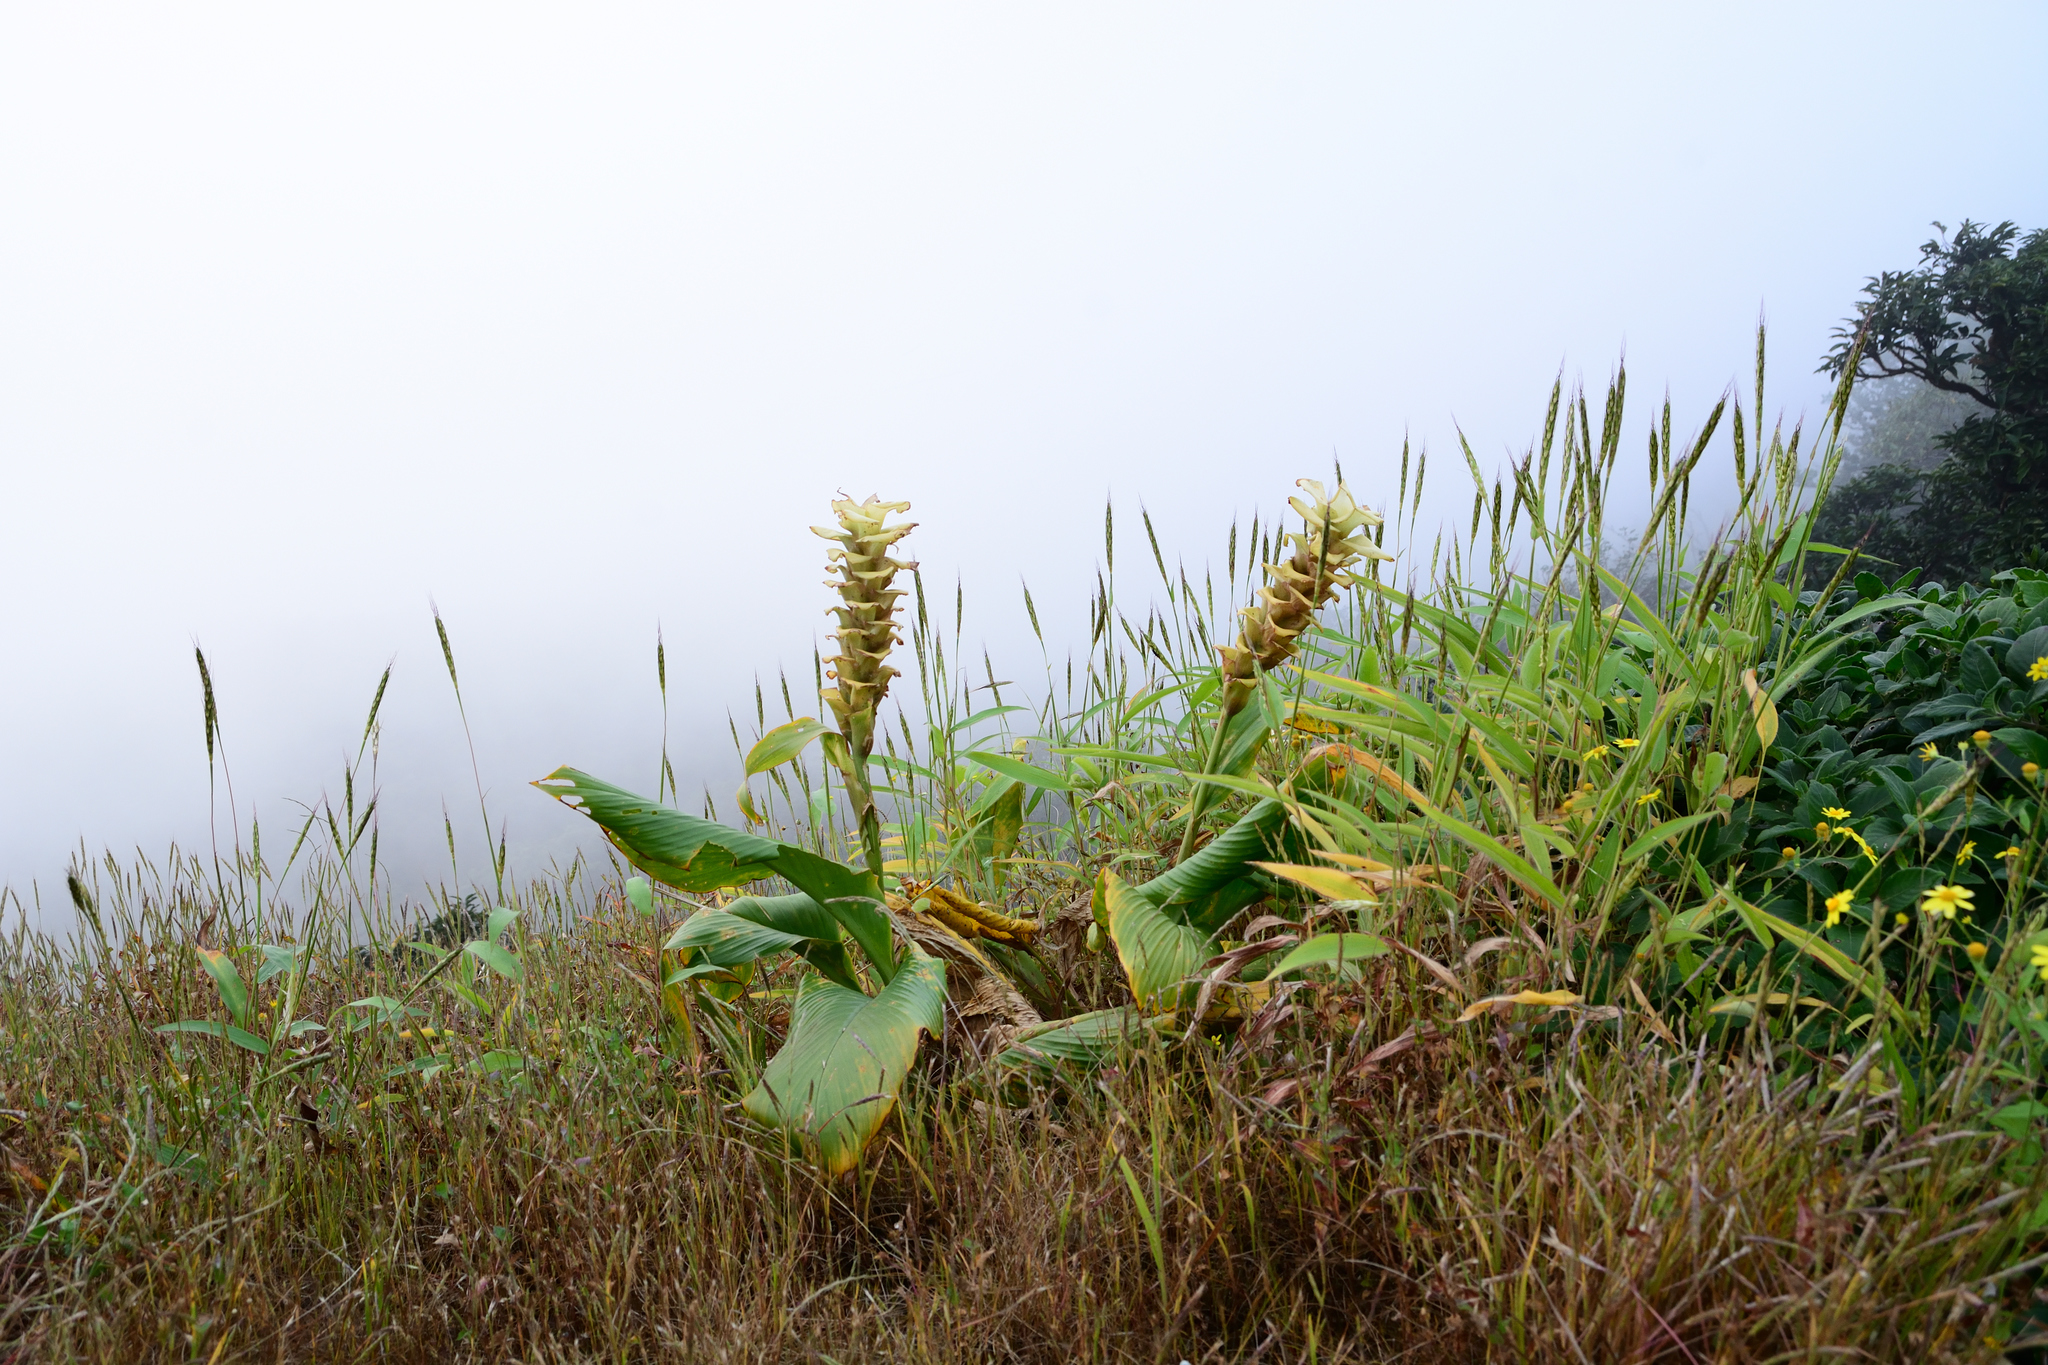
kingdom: Plantae
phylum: Tracheophyta
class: Liliopsida
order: Zingiberales
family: Zingiberaceae
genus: Curcuma
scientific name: Curcuma caulina
